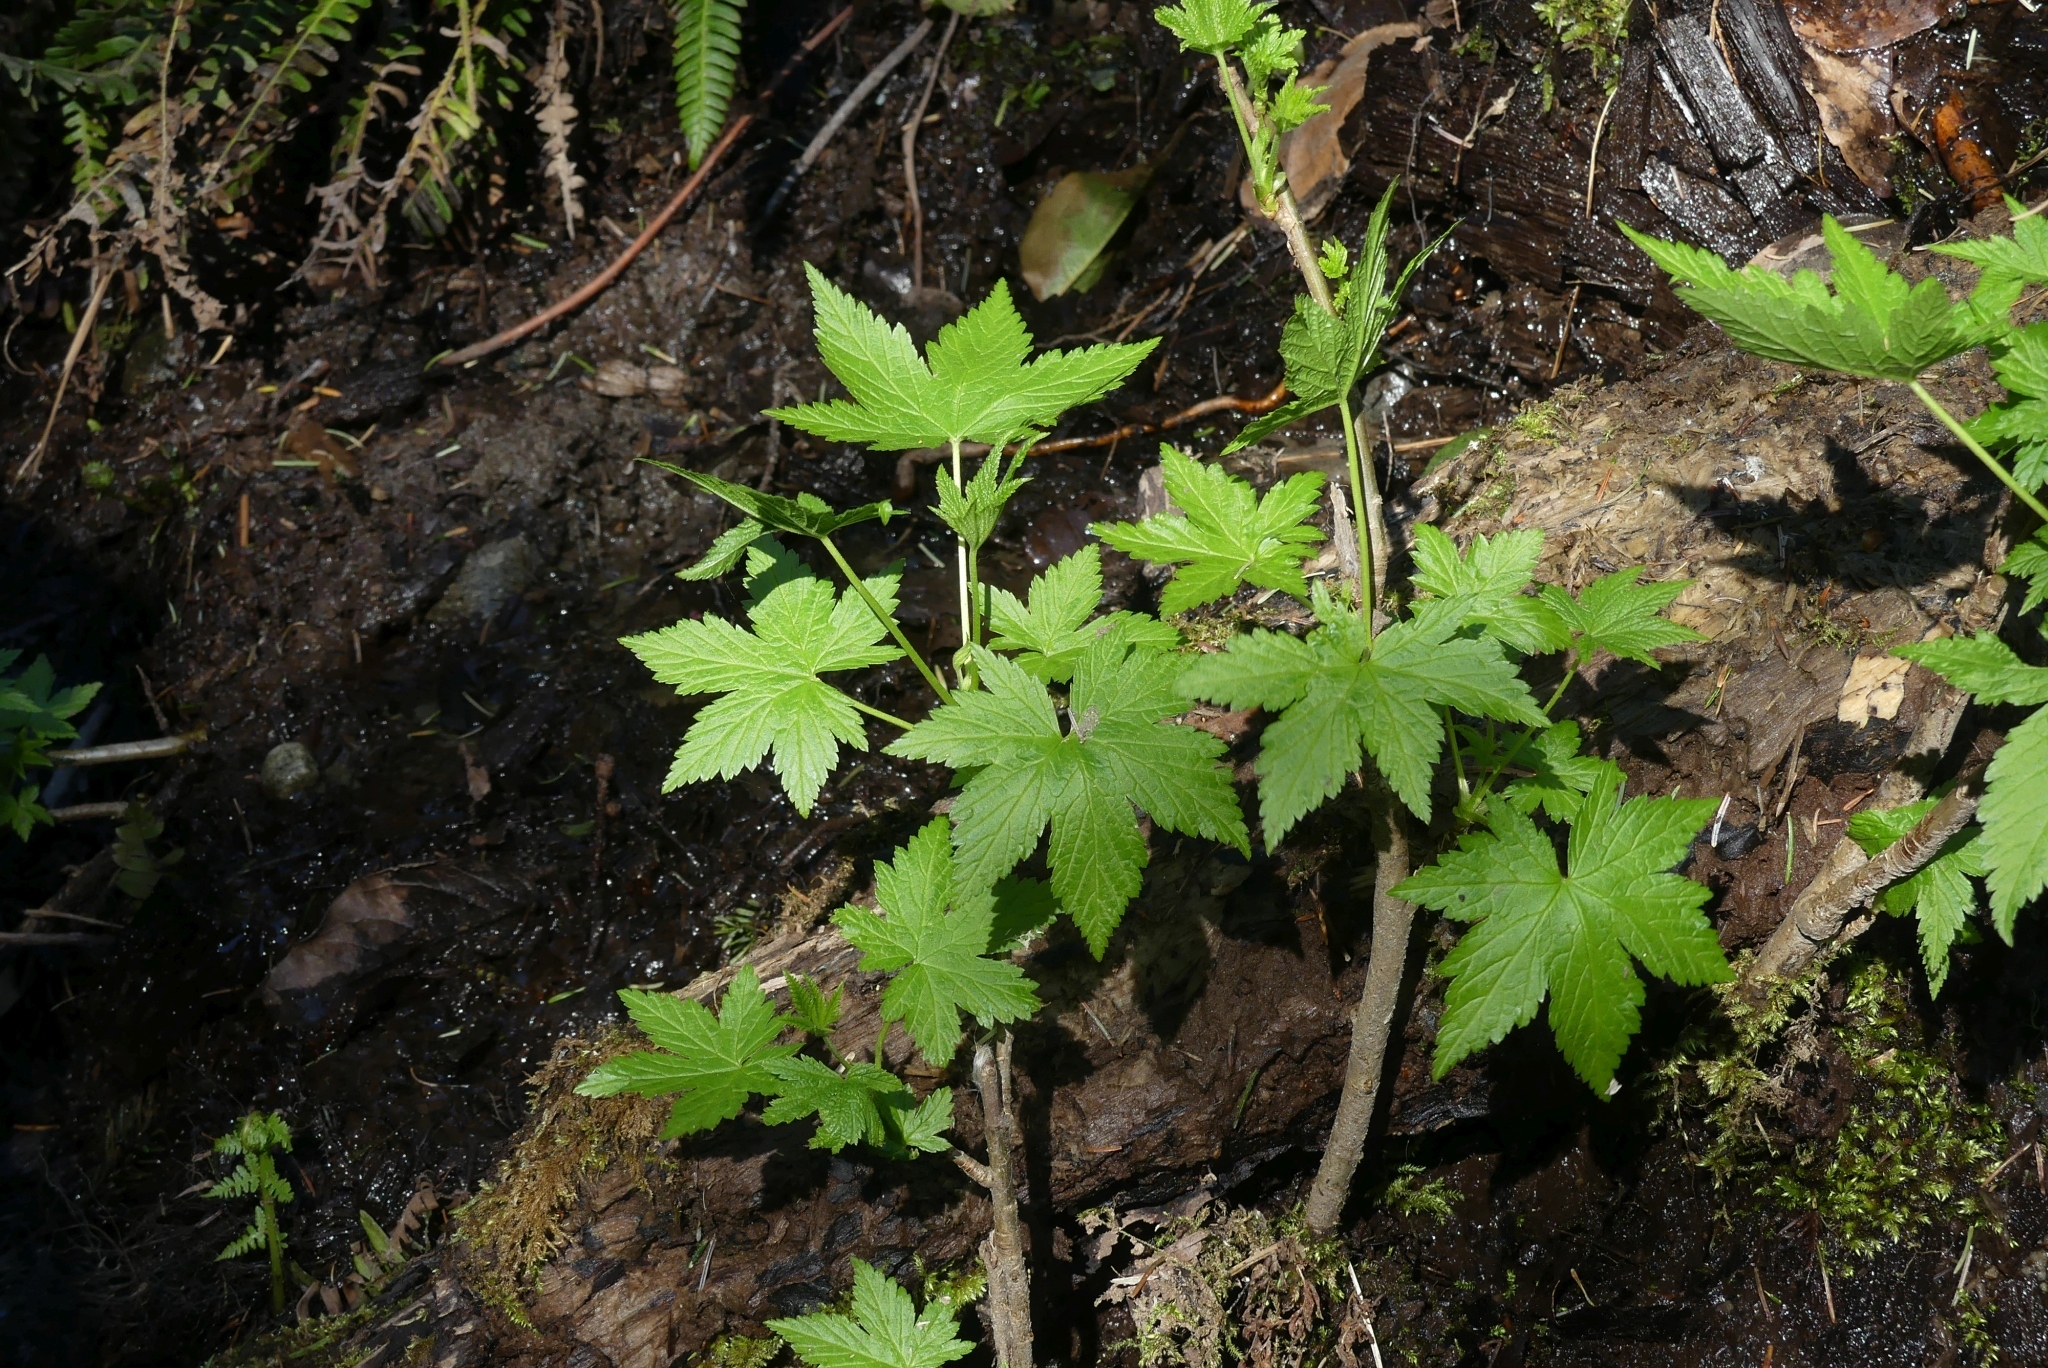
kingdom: Plantae
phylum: Tracheophyta
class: Magnoliopsida
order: Saxifragales
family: Grossulariaceae
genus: Ribes
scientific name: Ribes bracteosum
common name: California black currant
